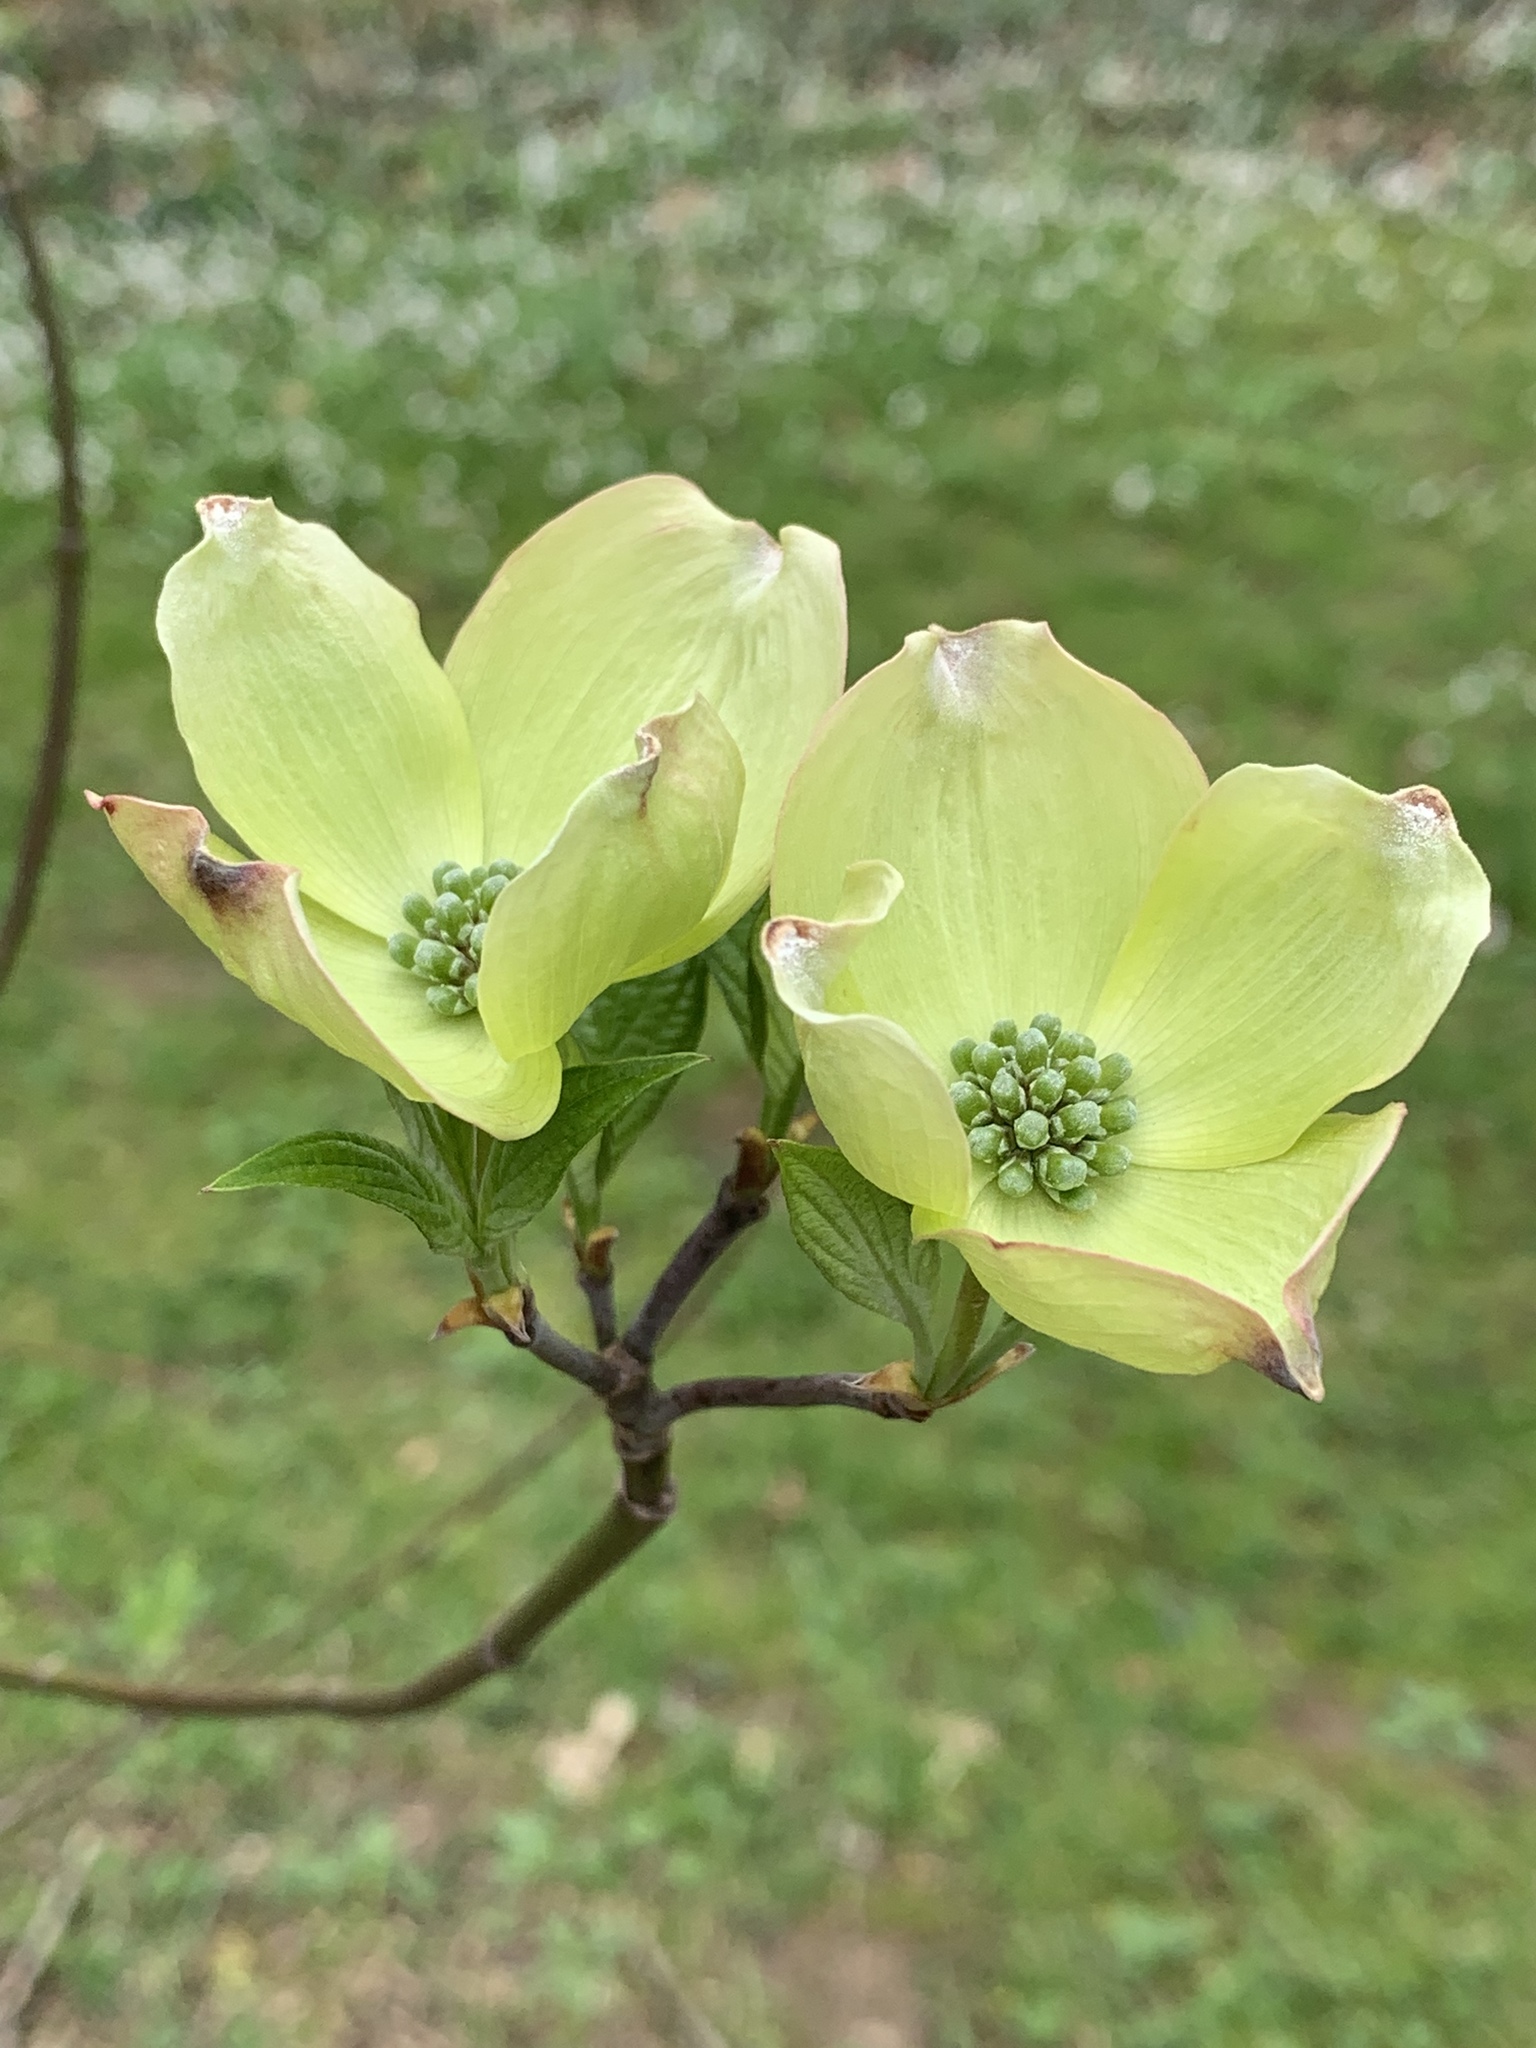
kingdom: Plantae
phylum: Tracheophyta
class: Magnoliopsida
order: Cornales
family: Cornaceae
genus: Cornus
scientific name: Cornus florida
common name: Flowering dogwood
